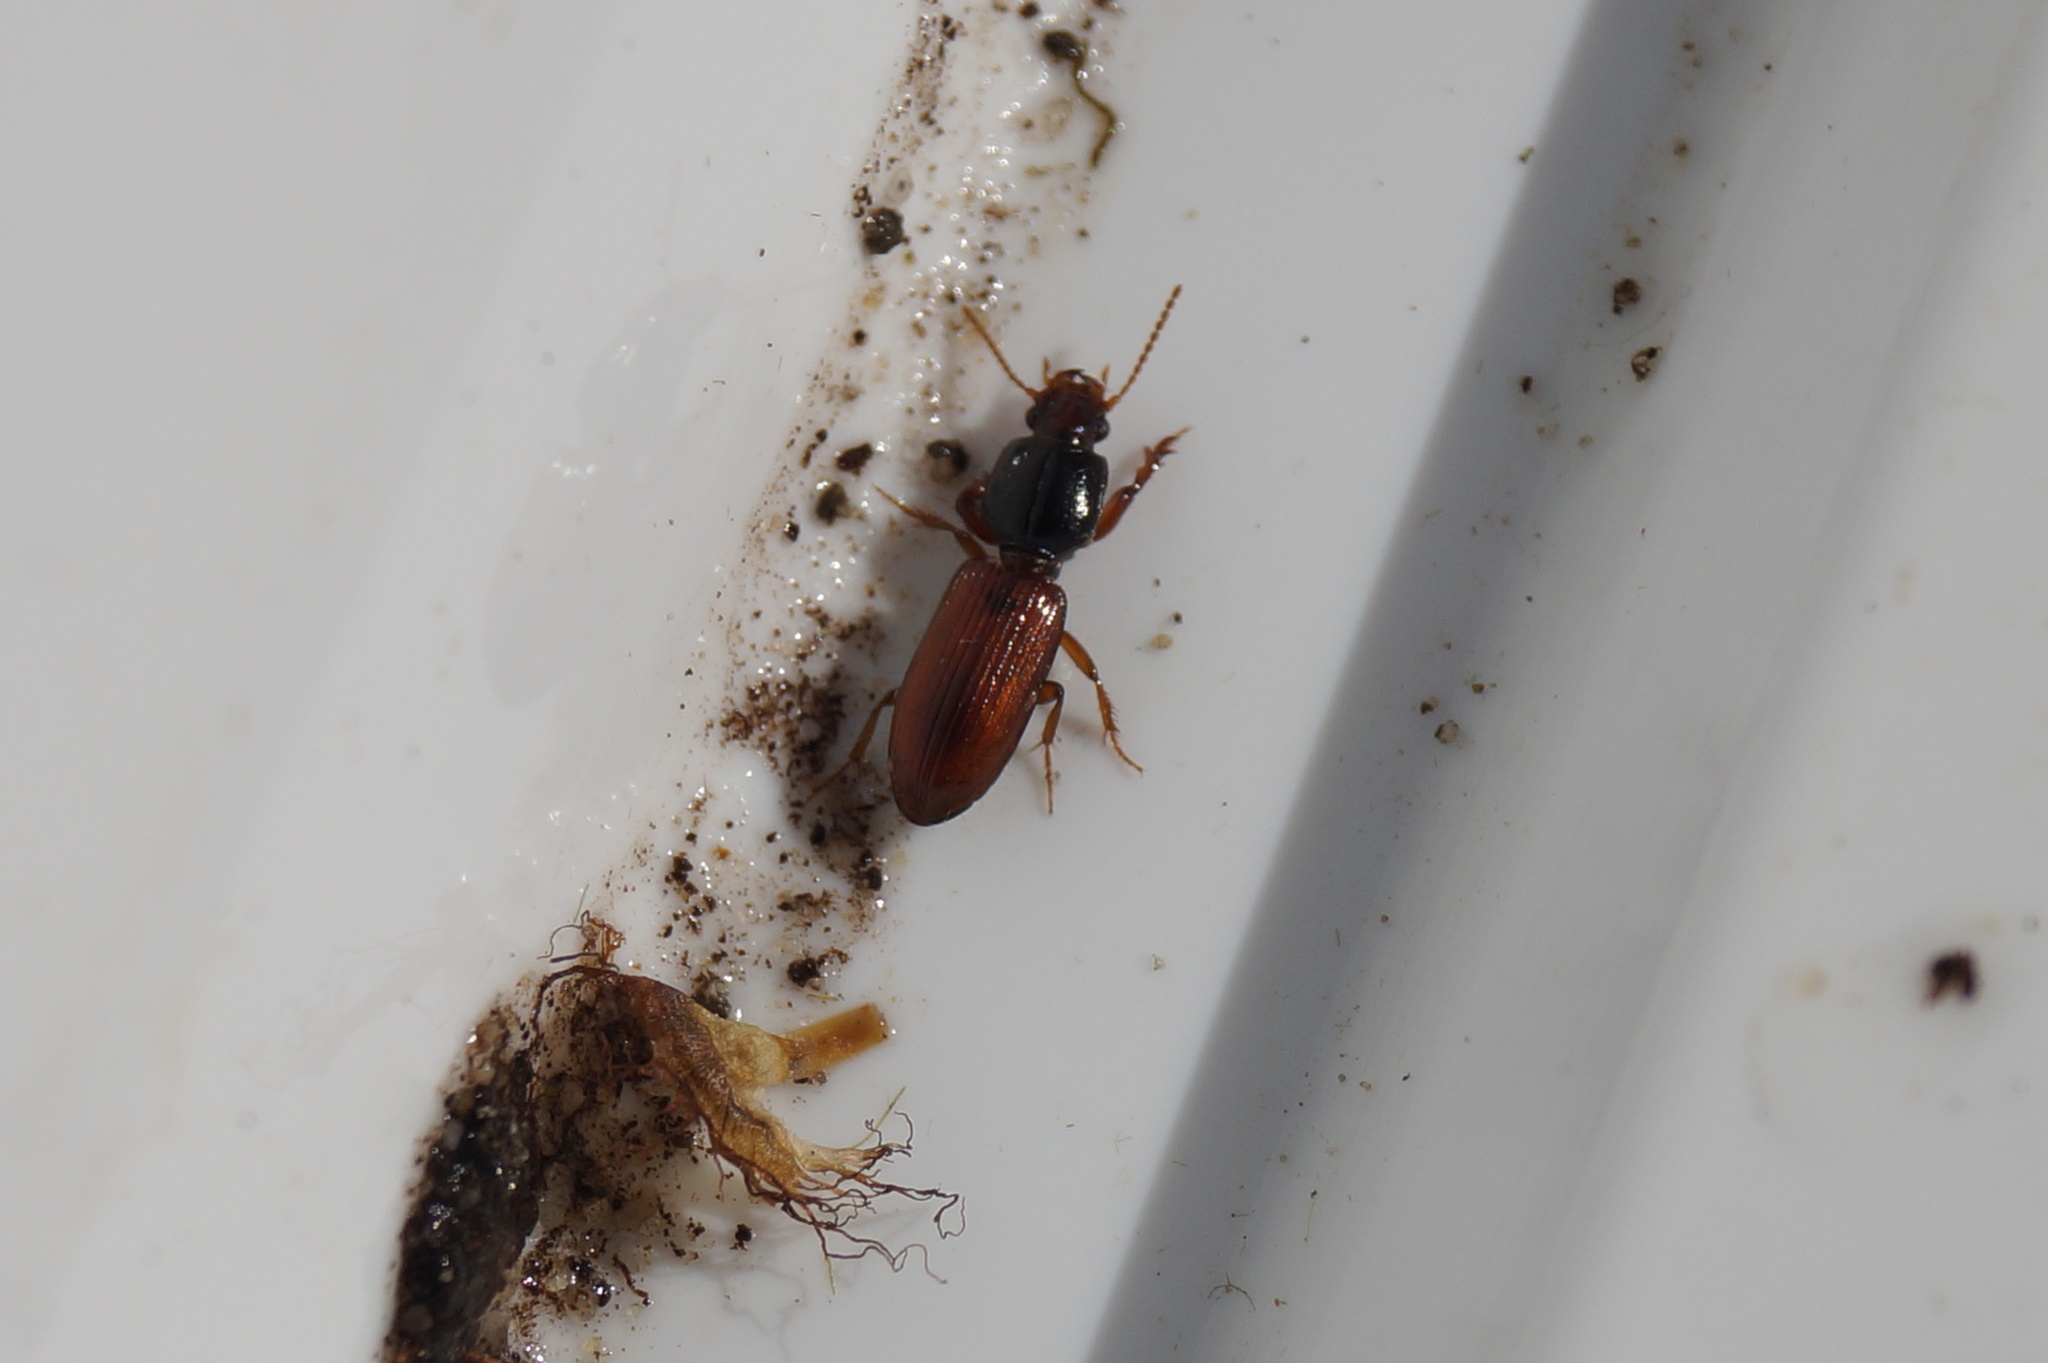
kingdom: Animalia
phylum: Arthropoda
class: Insecta
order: Coleoptera
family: Carabidae
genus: Clivina
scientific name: Clivina collaris
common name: Collared pedunculate ground beetle
